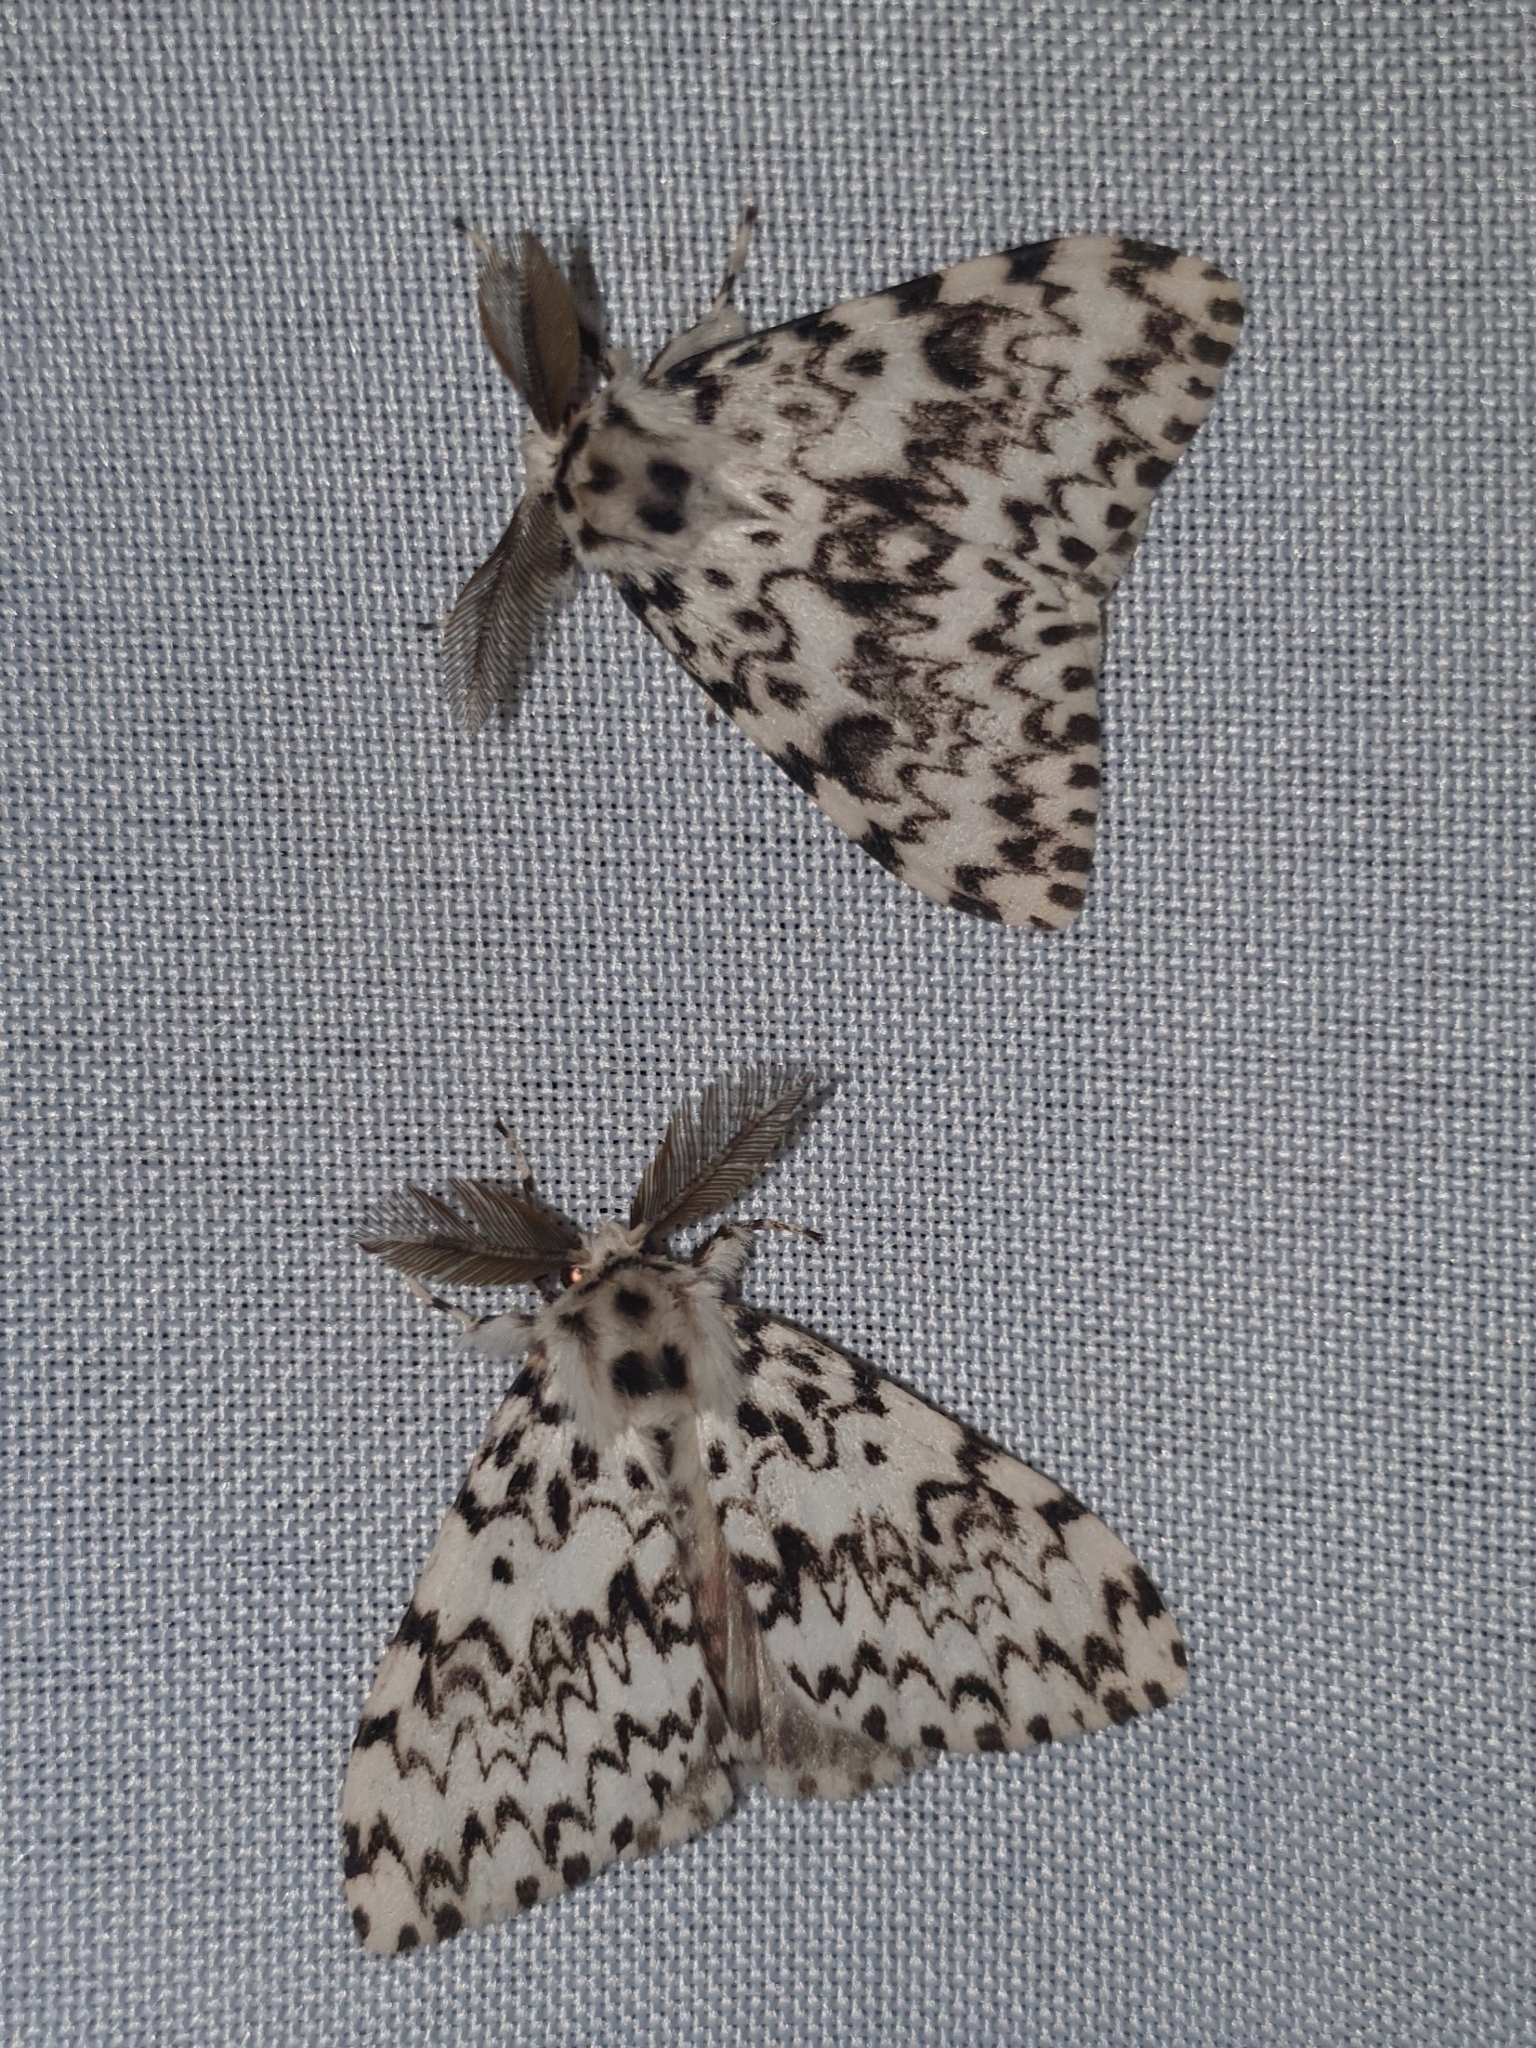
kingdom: Animalia
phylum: Arthropoda
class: Insecta
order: Lepidoptera
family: Erebidae
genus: Lymantria
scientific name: Lymantria monacha
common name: Black arches
